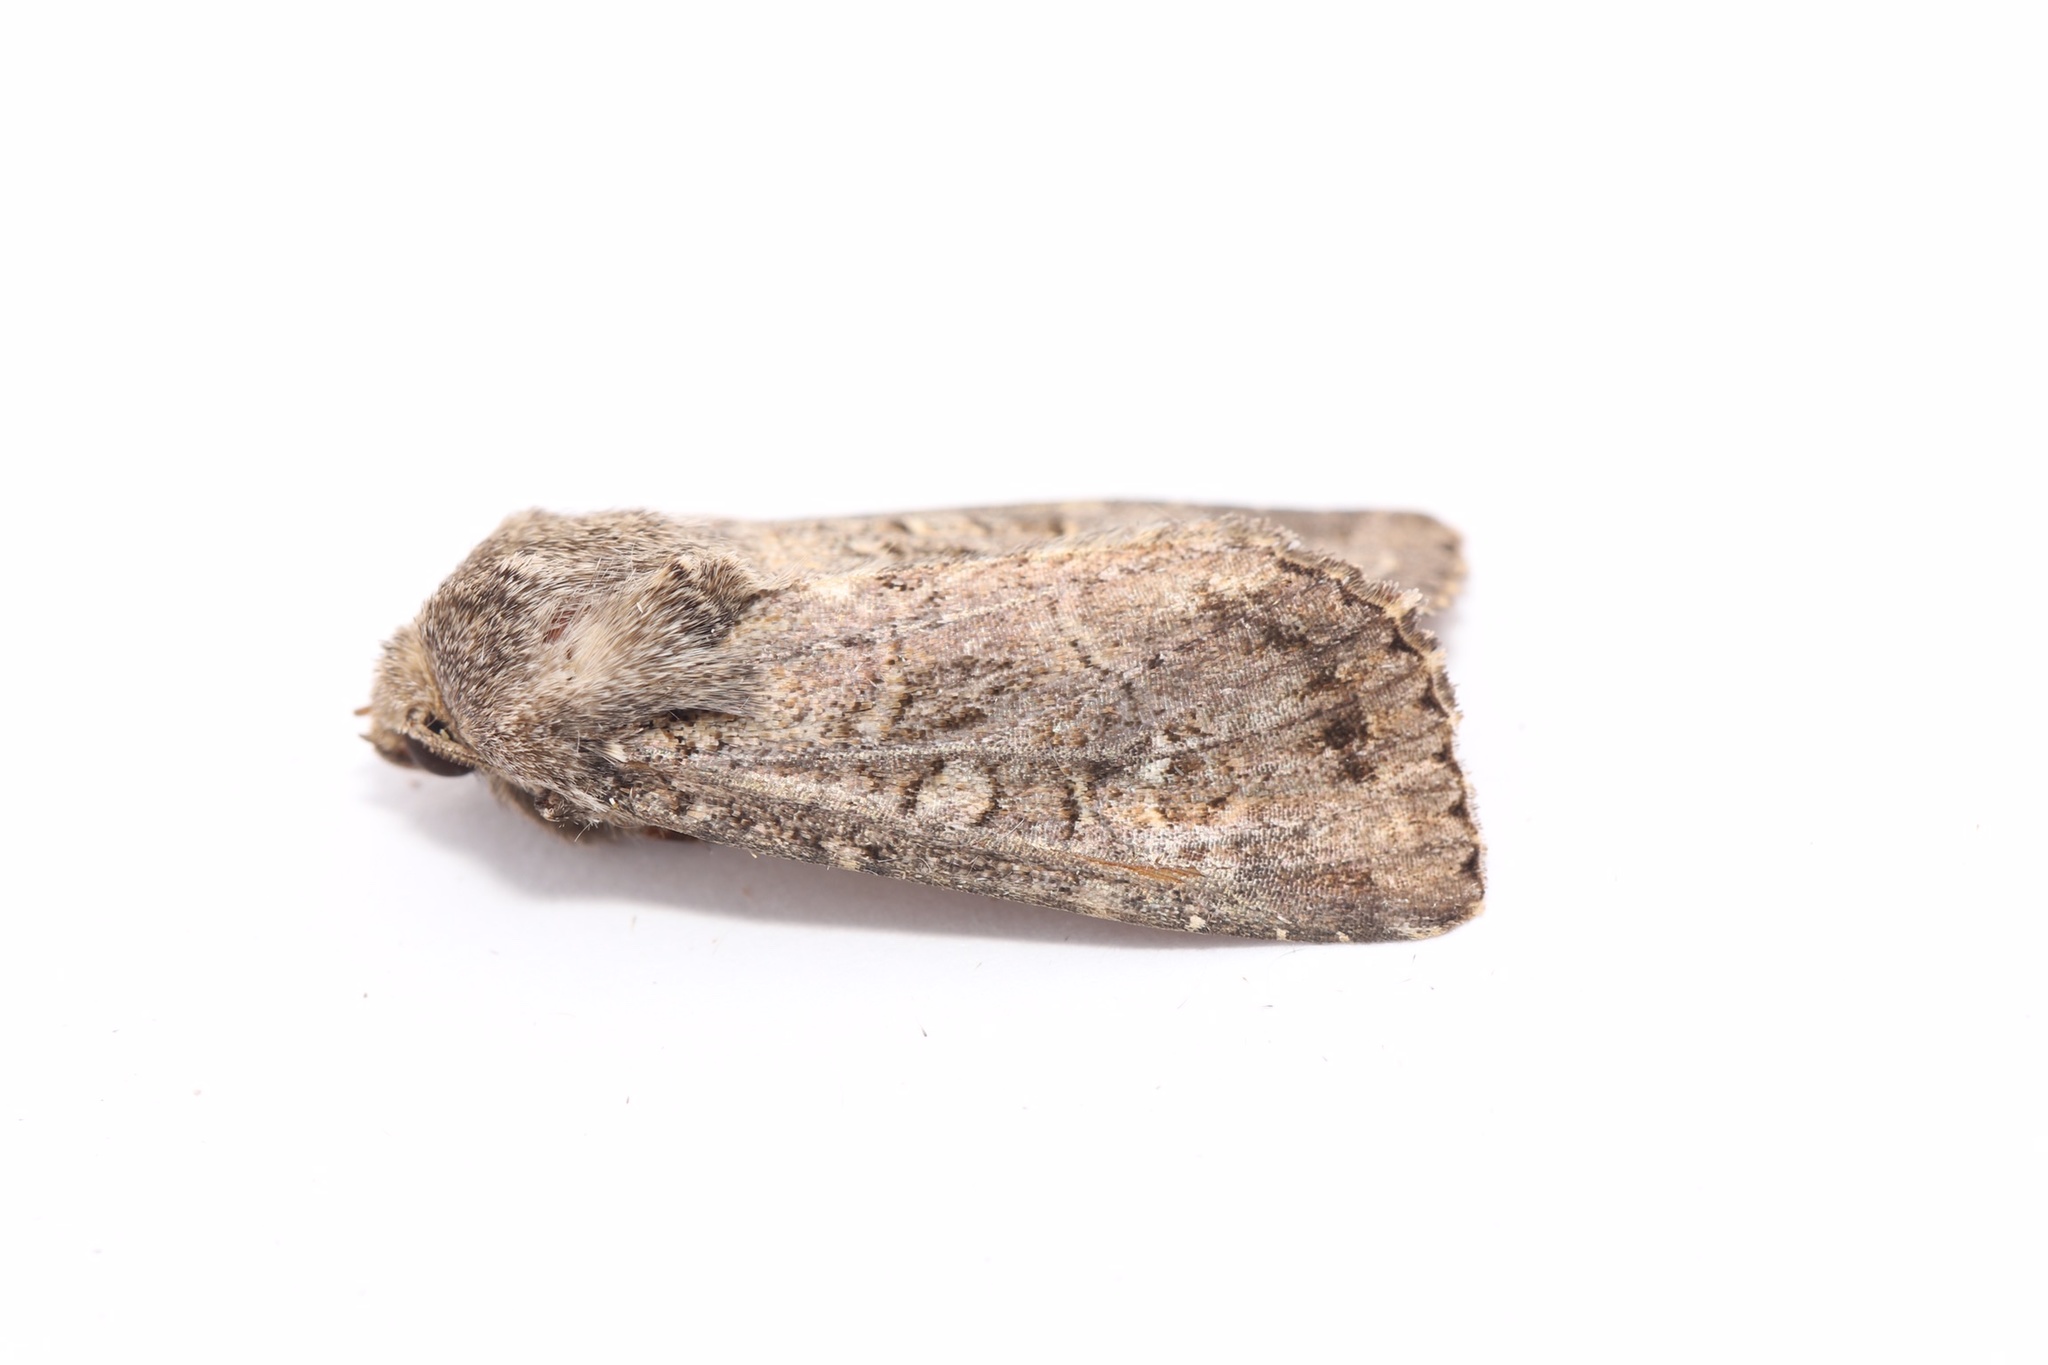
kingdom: Animalia
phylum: Arthropoda
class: Insecta
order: Lepidoptera
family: Noctuidae
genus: Apamea
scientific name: Apamea devastator
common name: Glassy cutworm
